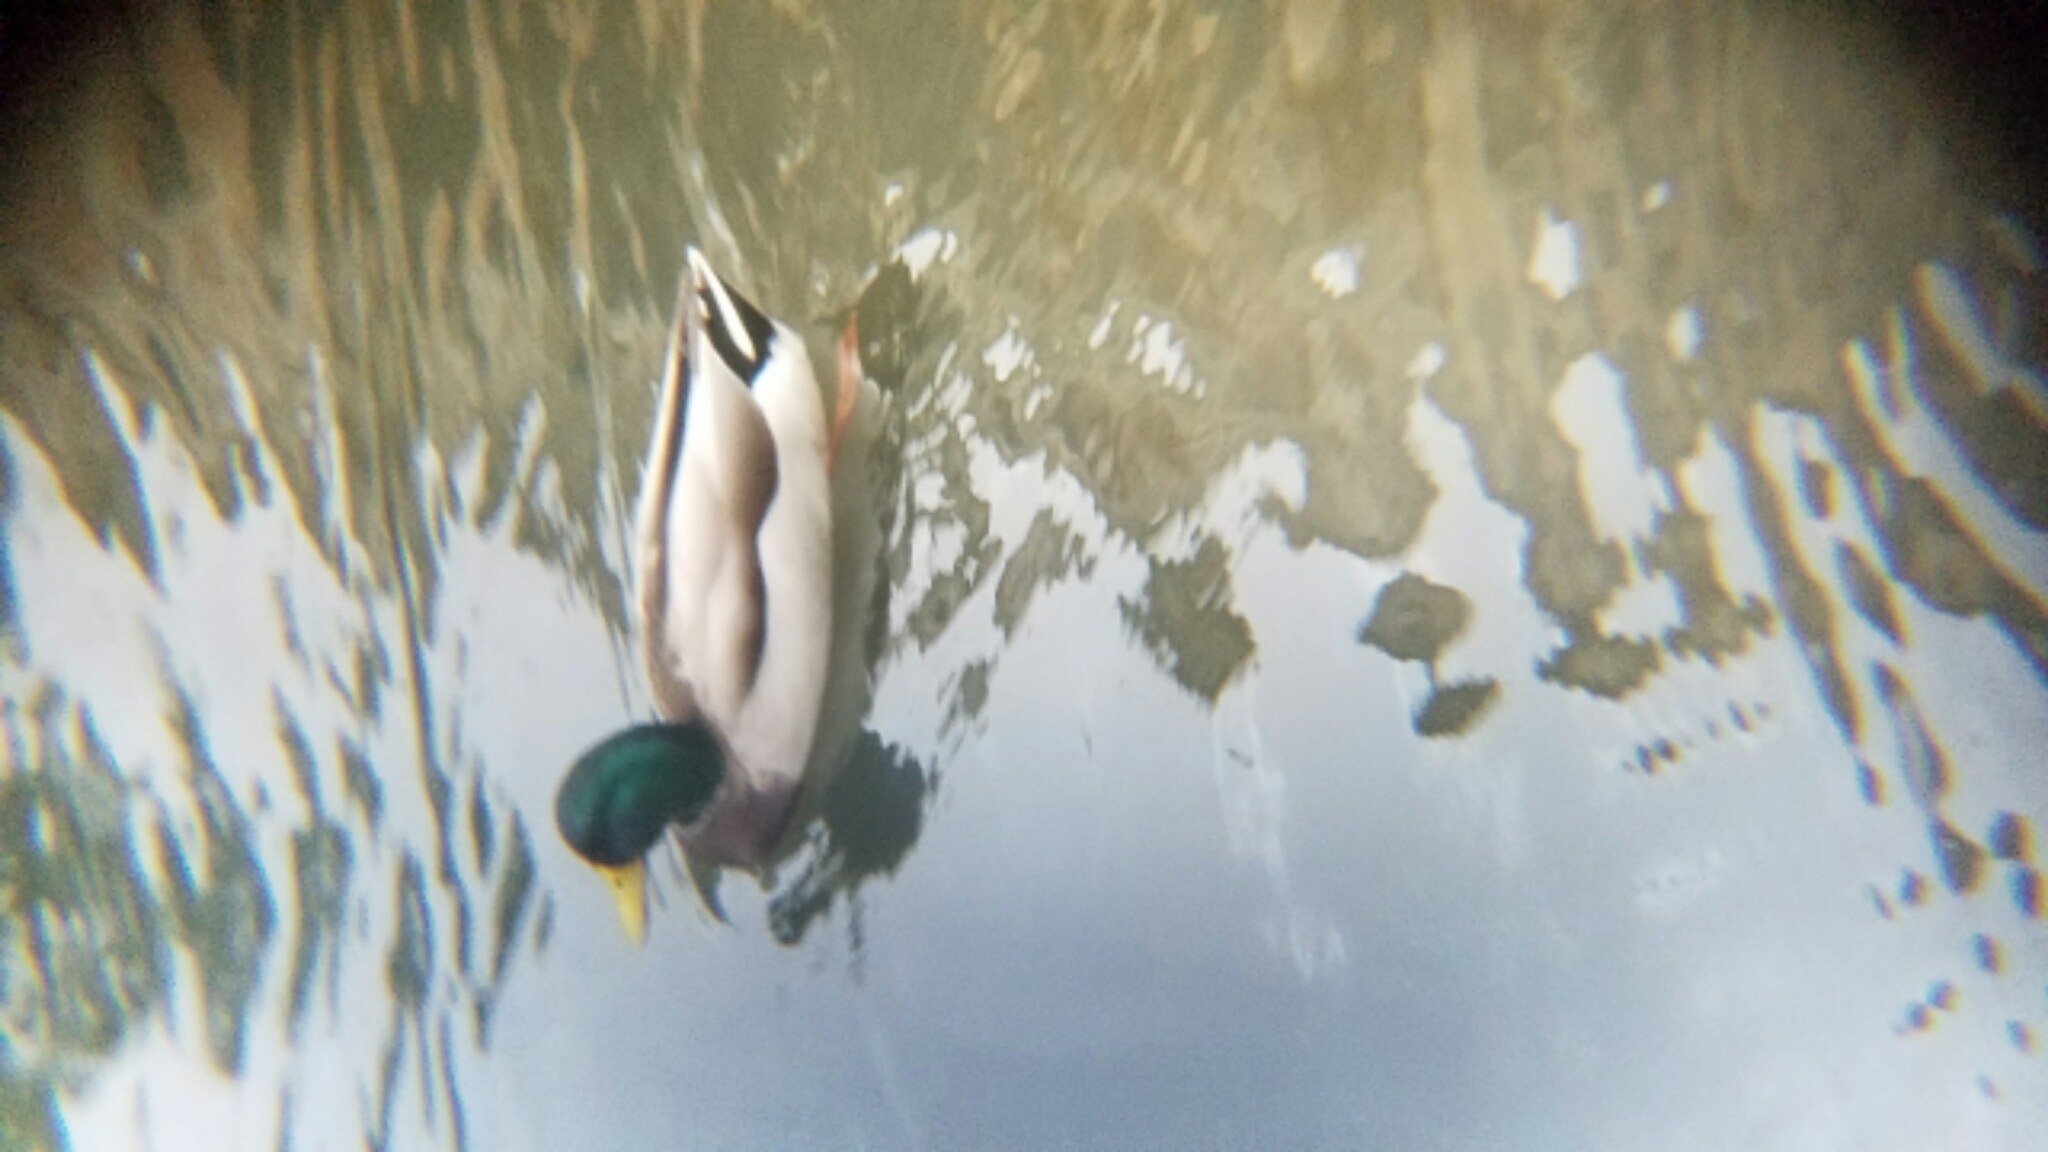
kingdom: Animalia
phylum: Chordata
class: Aves
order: Anseriformes
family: Anatidae
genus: Anas
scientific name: Anas platyrhynchos
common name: Mallard
